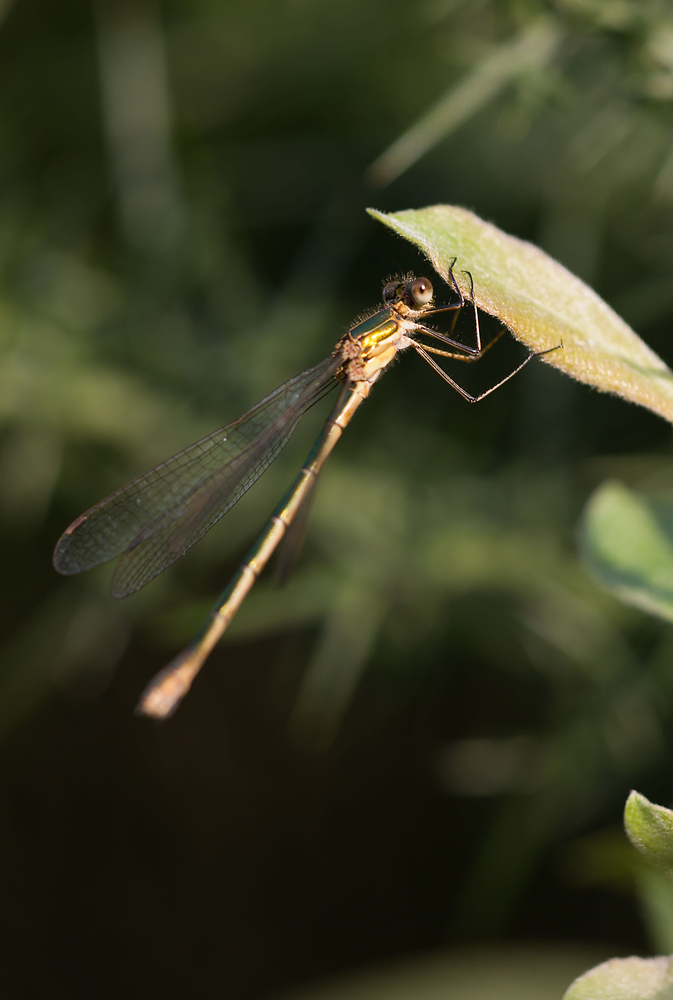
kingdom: Animalia
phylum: Arthropoda
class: Insecta
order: Odonata
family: Lestidae
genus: Lestes
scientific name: Lestes sponsa
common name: Common spreadwing
